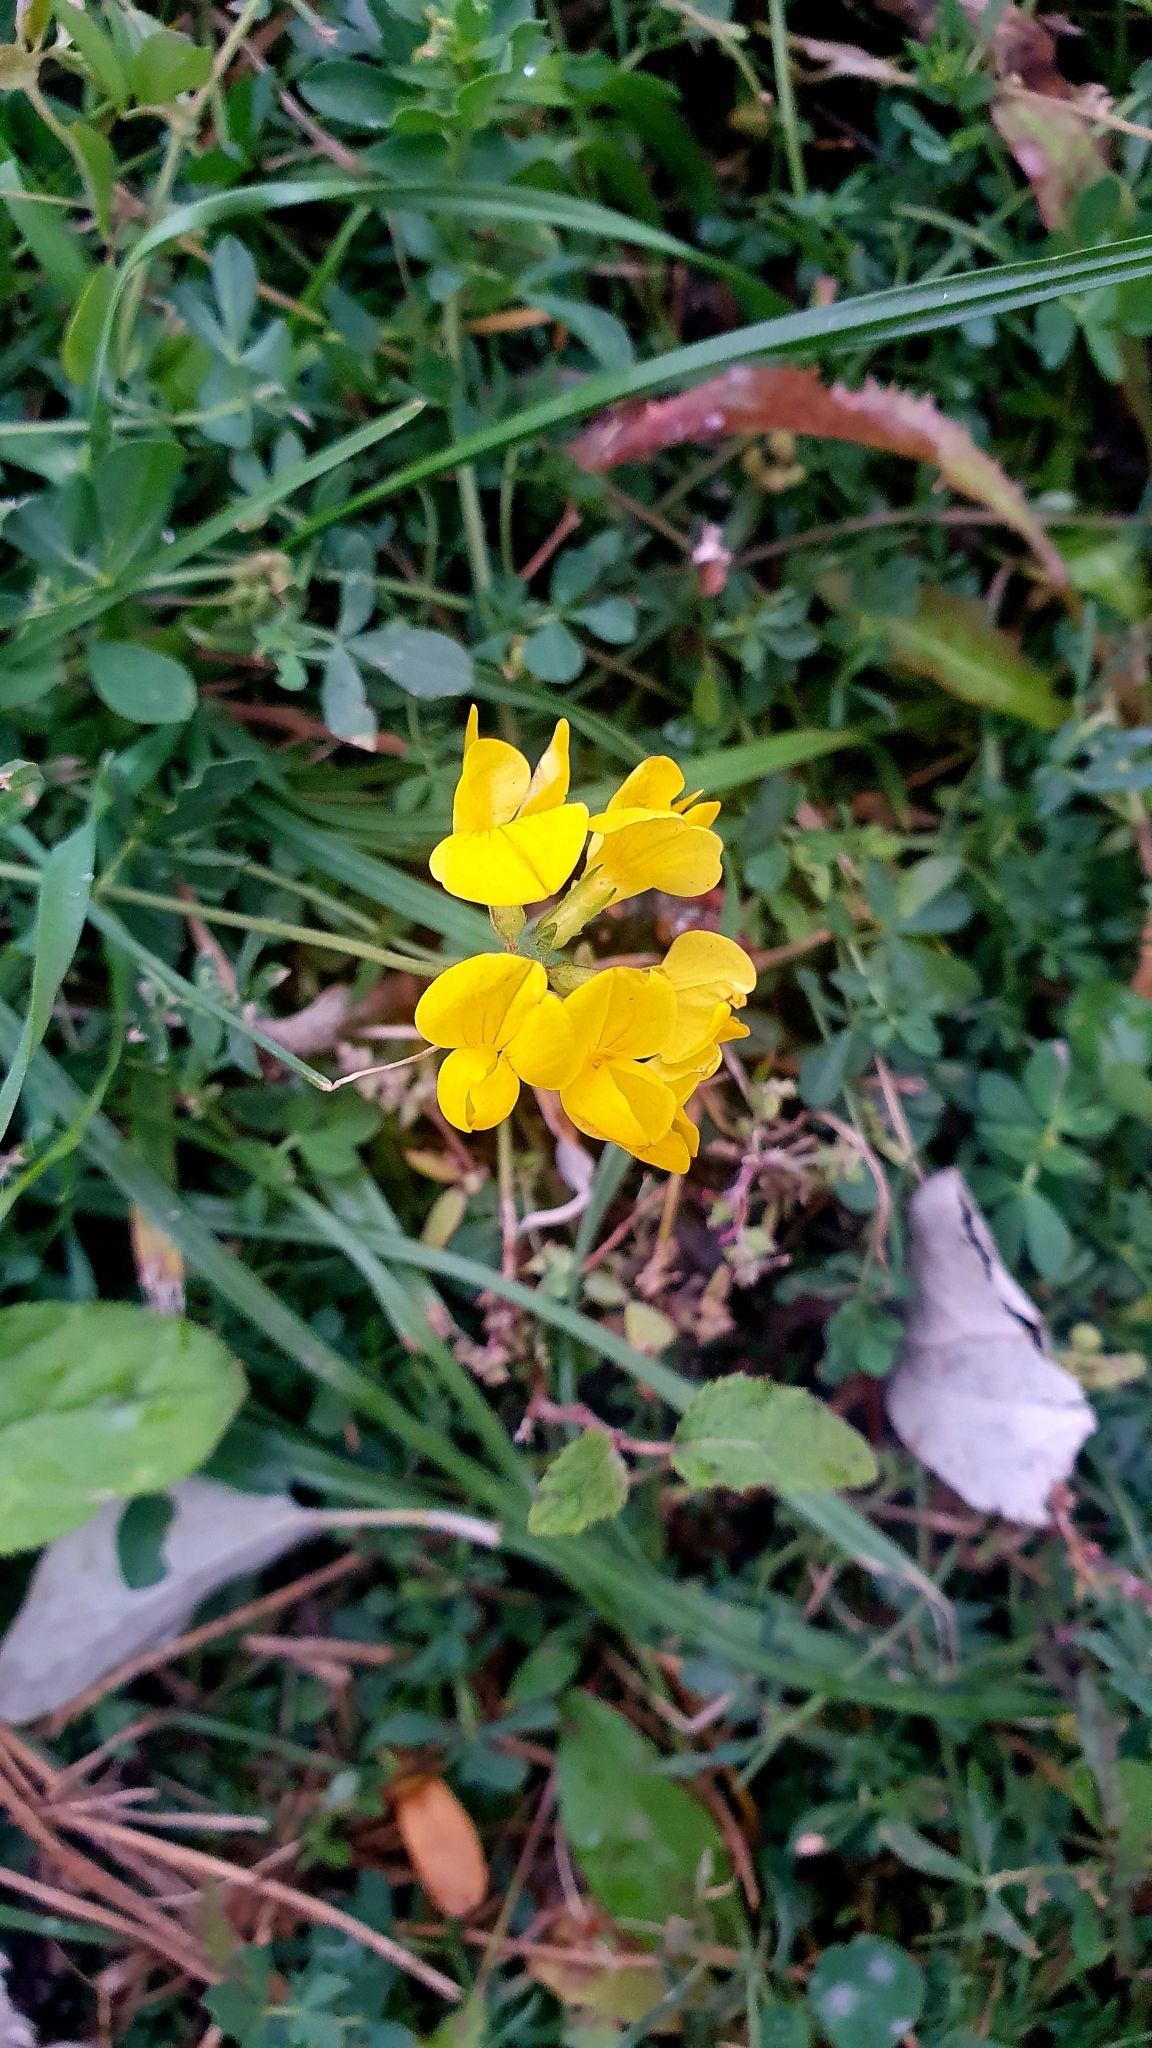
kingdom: Plantae
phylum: Tracheophyta
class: Magnoliopsida
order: Fabales
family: Fabaceae
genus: Lotus
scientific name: Lotus corniculatus
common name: Common bird's-foot-trefoil
